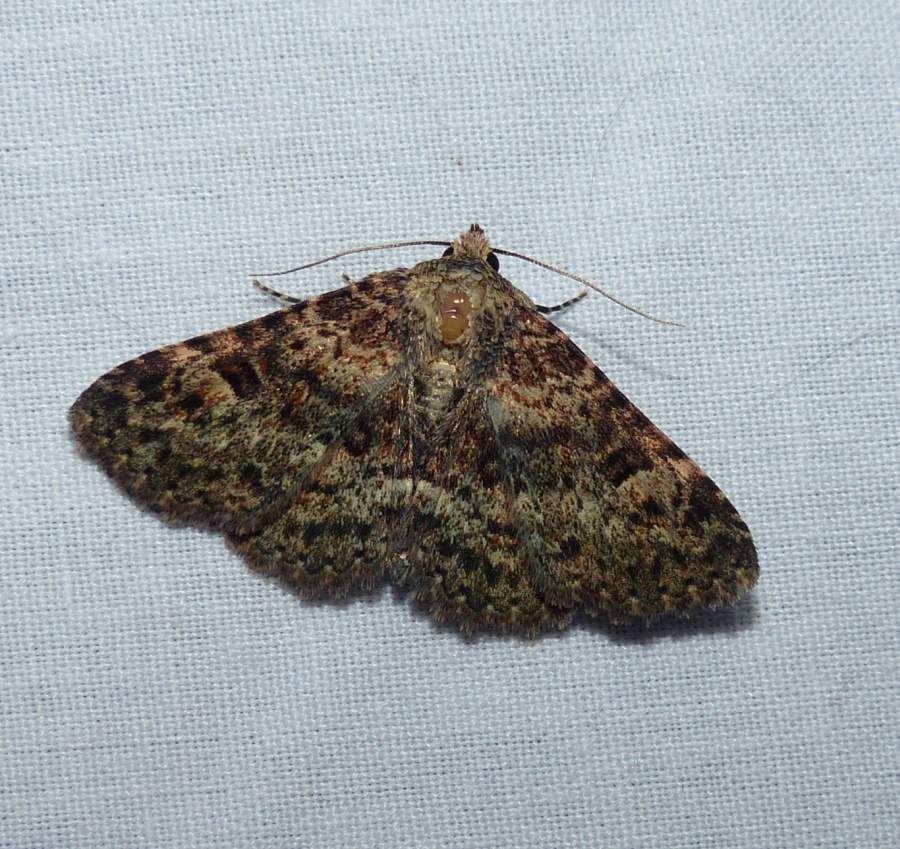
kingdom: Animalia
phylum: Arthropoda
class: Insecta
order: Lepidoptera
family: Erebidae
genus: Metalectra
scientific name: Metalectra discalis
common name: Common fungus moth
